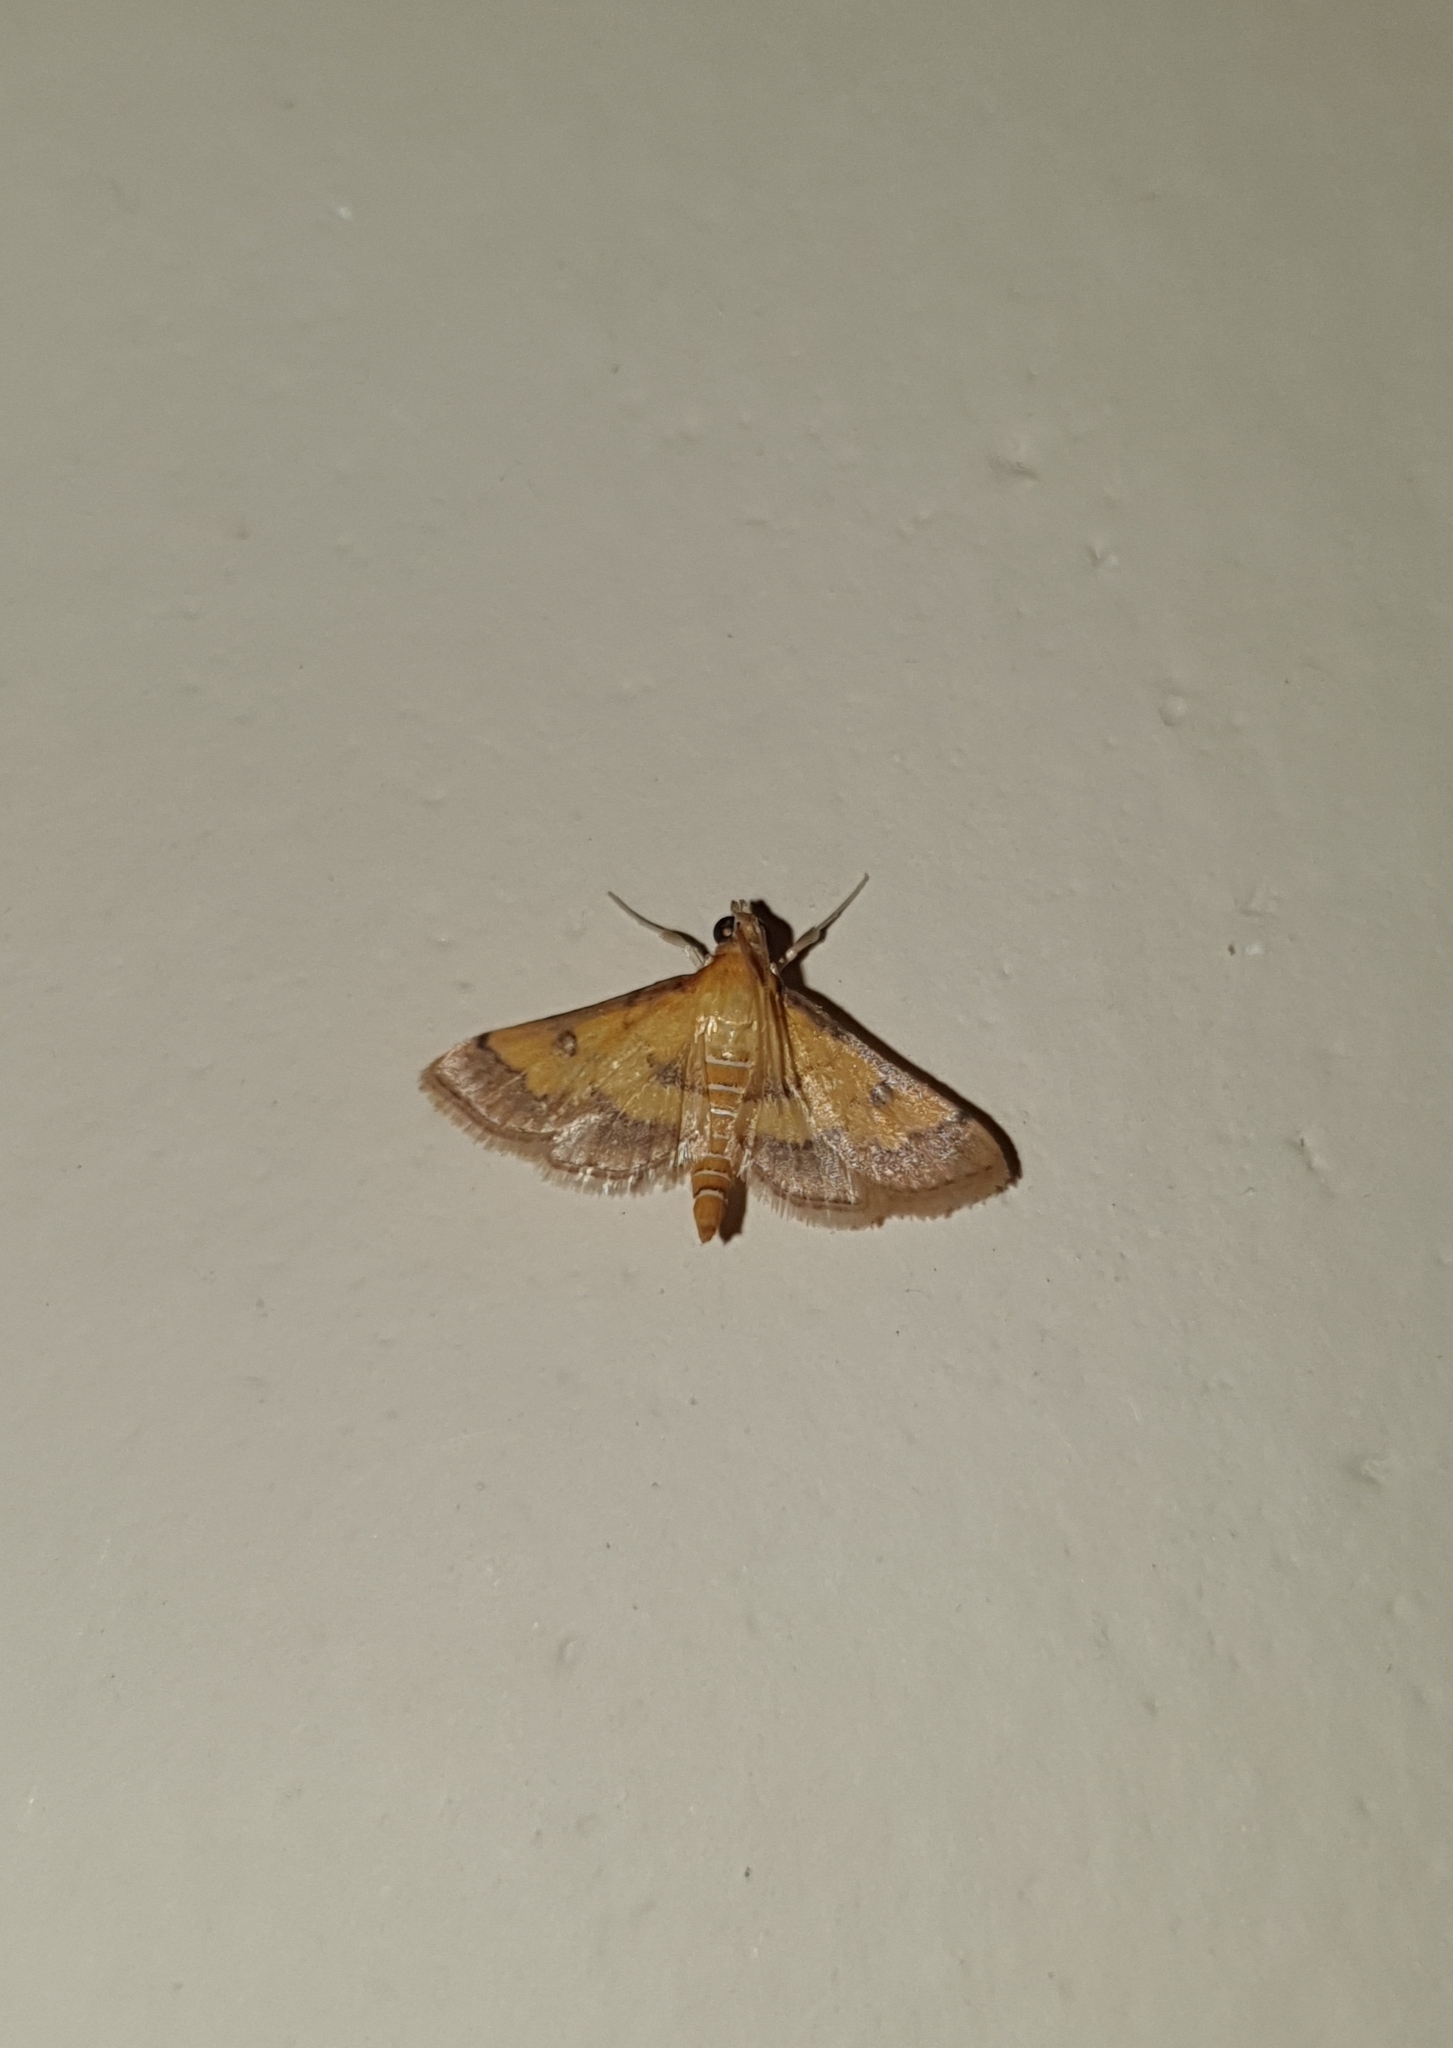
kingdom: Animalia
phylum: Arthropoda
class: Insecta
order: Lepidoptera
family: Crambidae
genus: Ischnurges
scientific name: Ischnurges luteomarginalis
